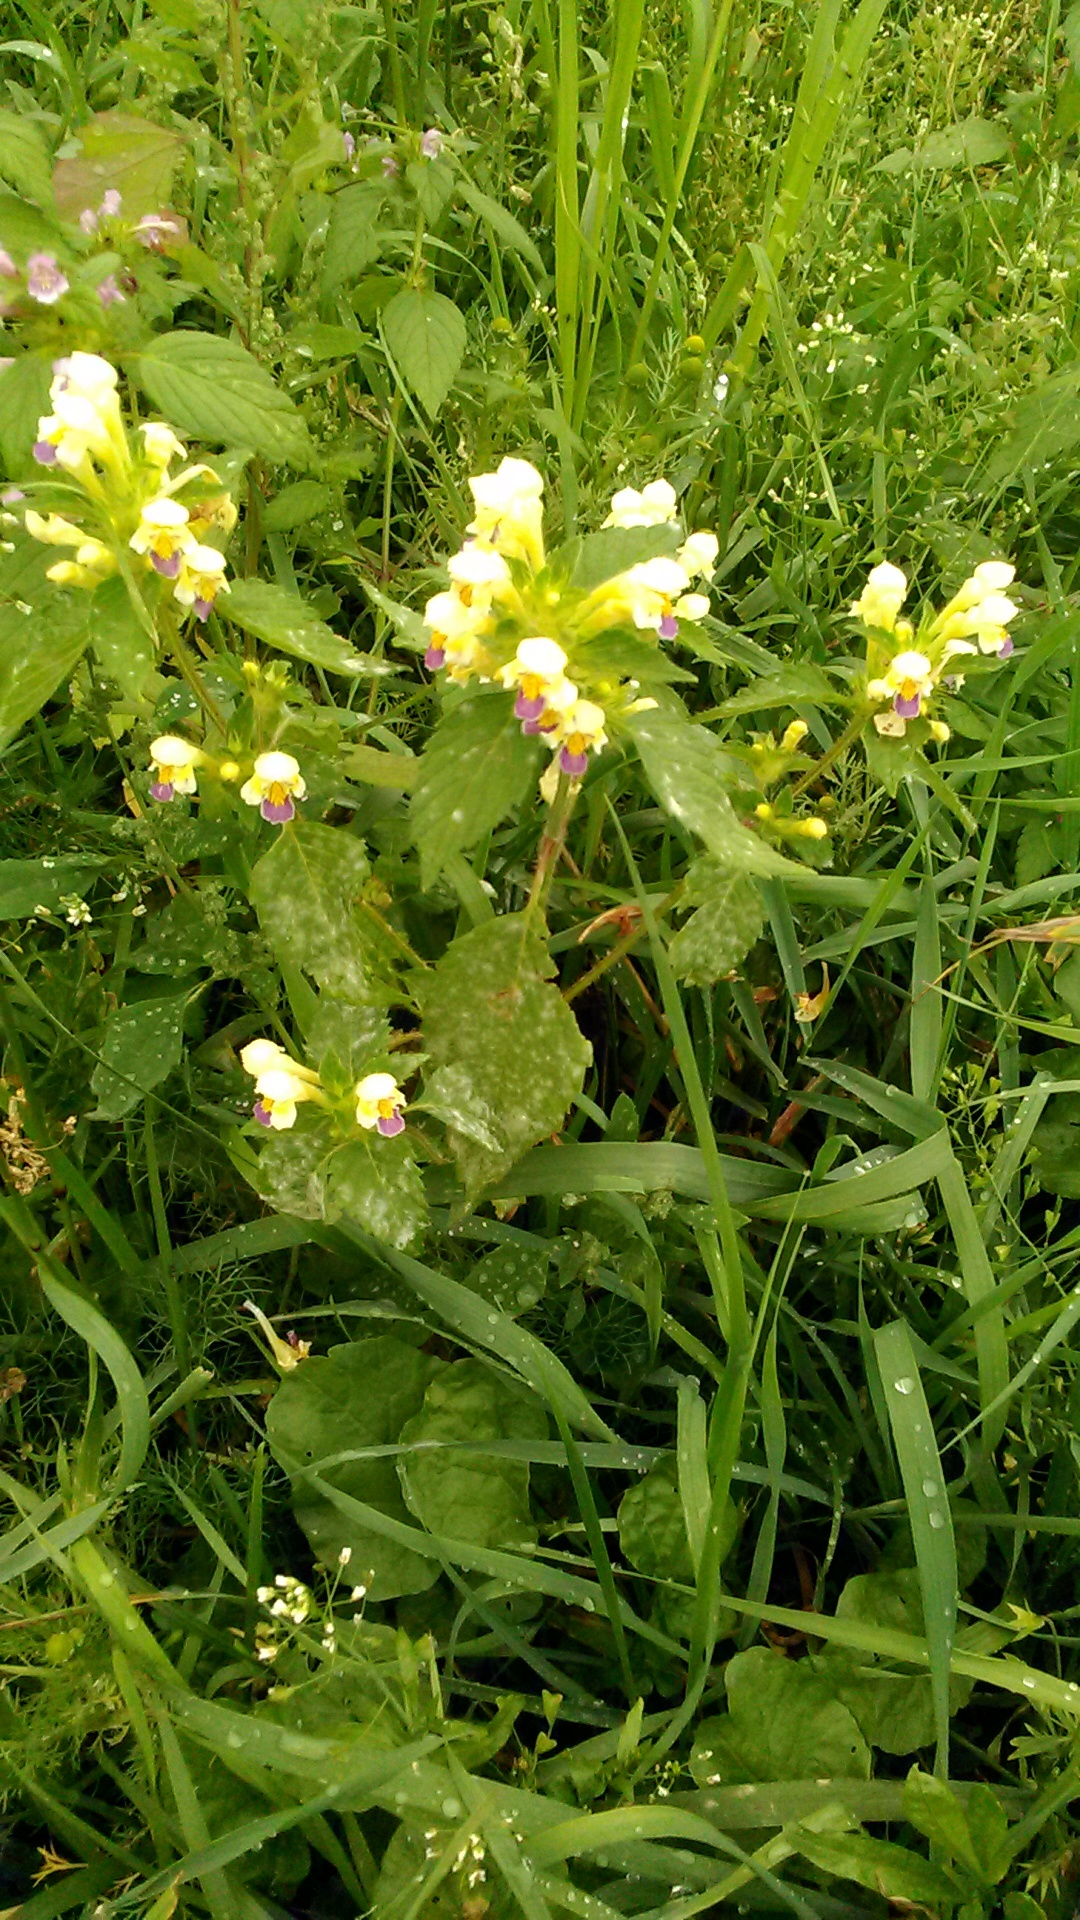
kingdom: Plantae
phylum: Tracheophyta
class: Magnoliopsida
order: Lamiales
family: Lamiaceae
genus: Galeopsis
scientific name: Galeopsis speciosa
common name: Large-flowered hemp-nettle
